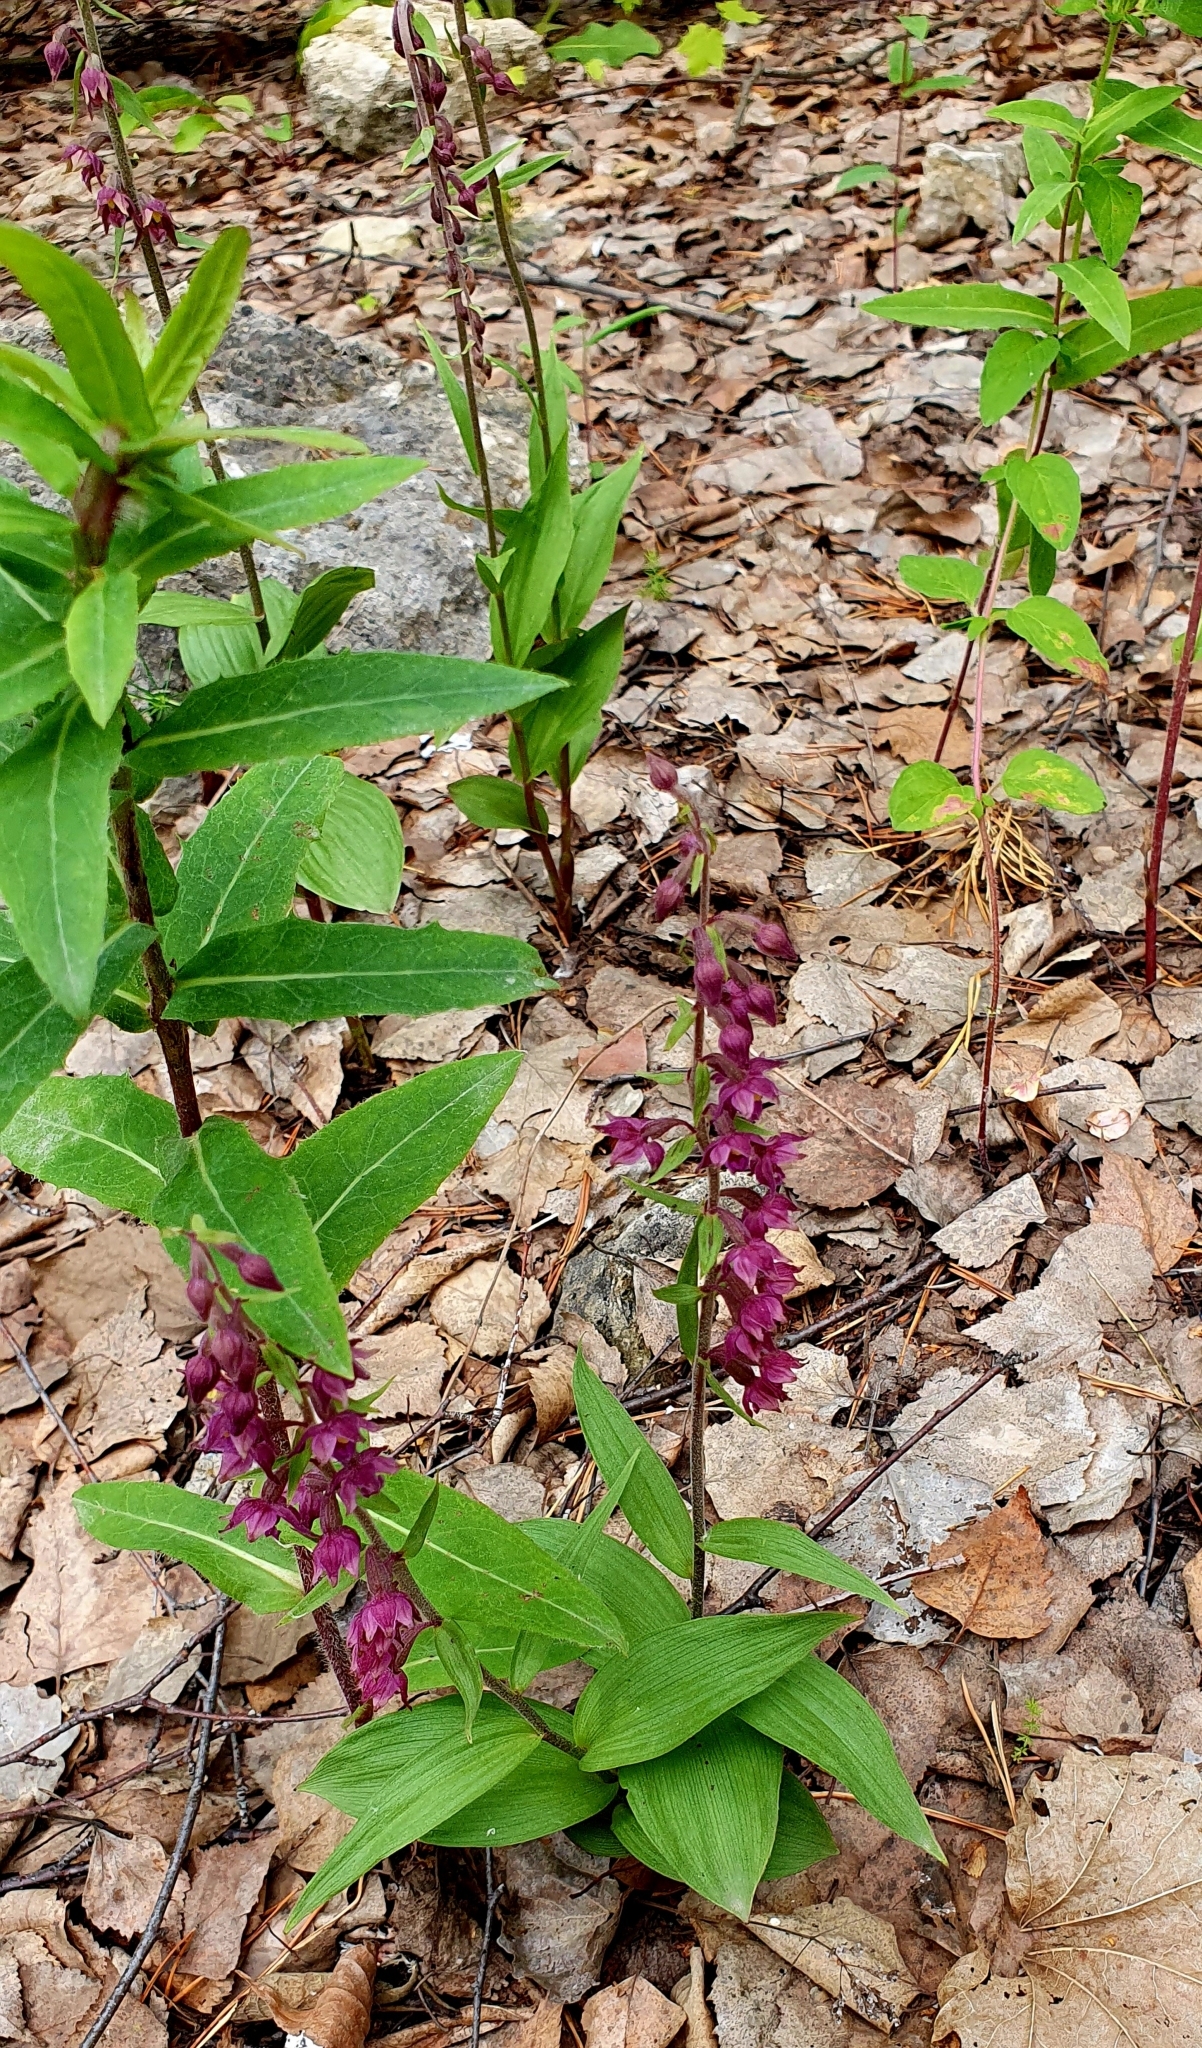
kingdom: Plantae
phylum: Tracheophyta
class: Liliopsida
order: Asparagales
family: Orchidaceae
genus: Epipactis
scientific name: Epipactis atrorubens
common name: Dark-red helleborine
